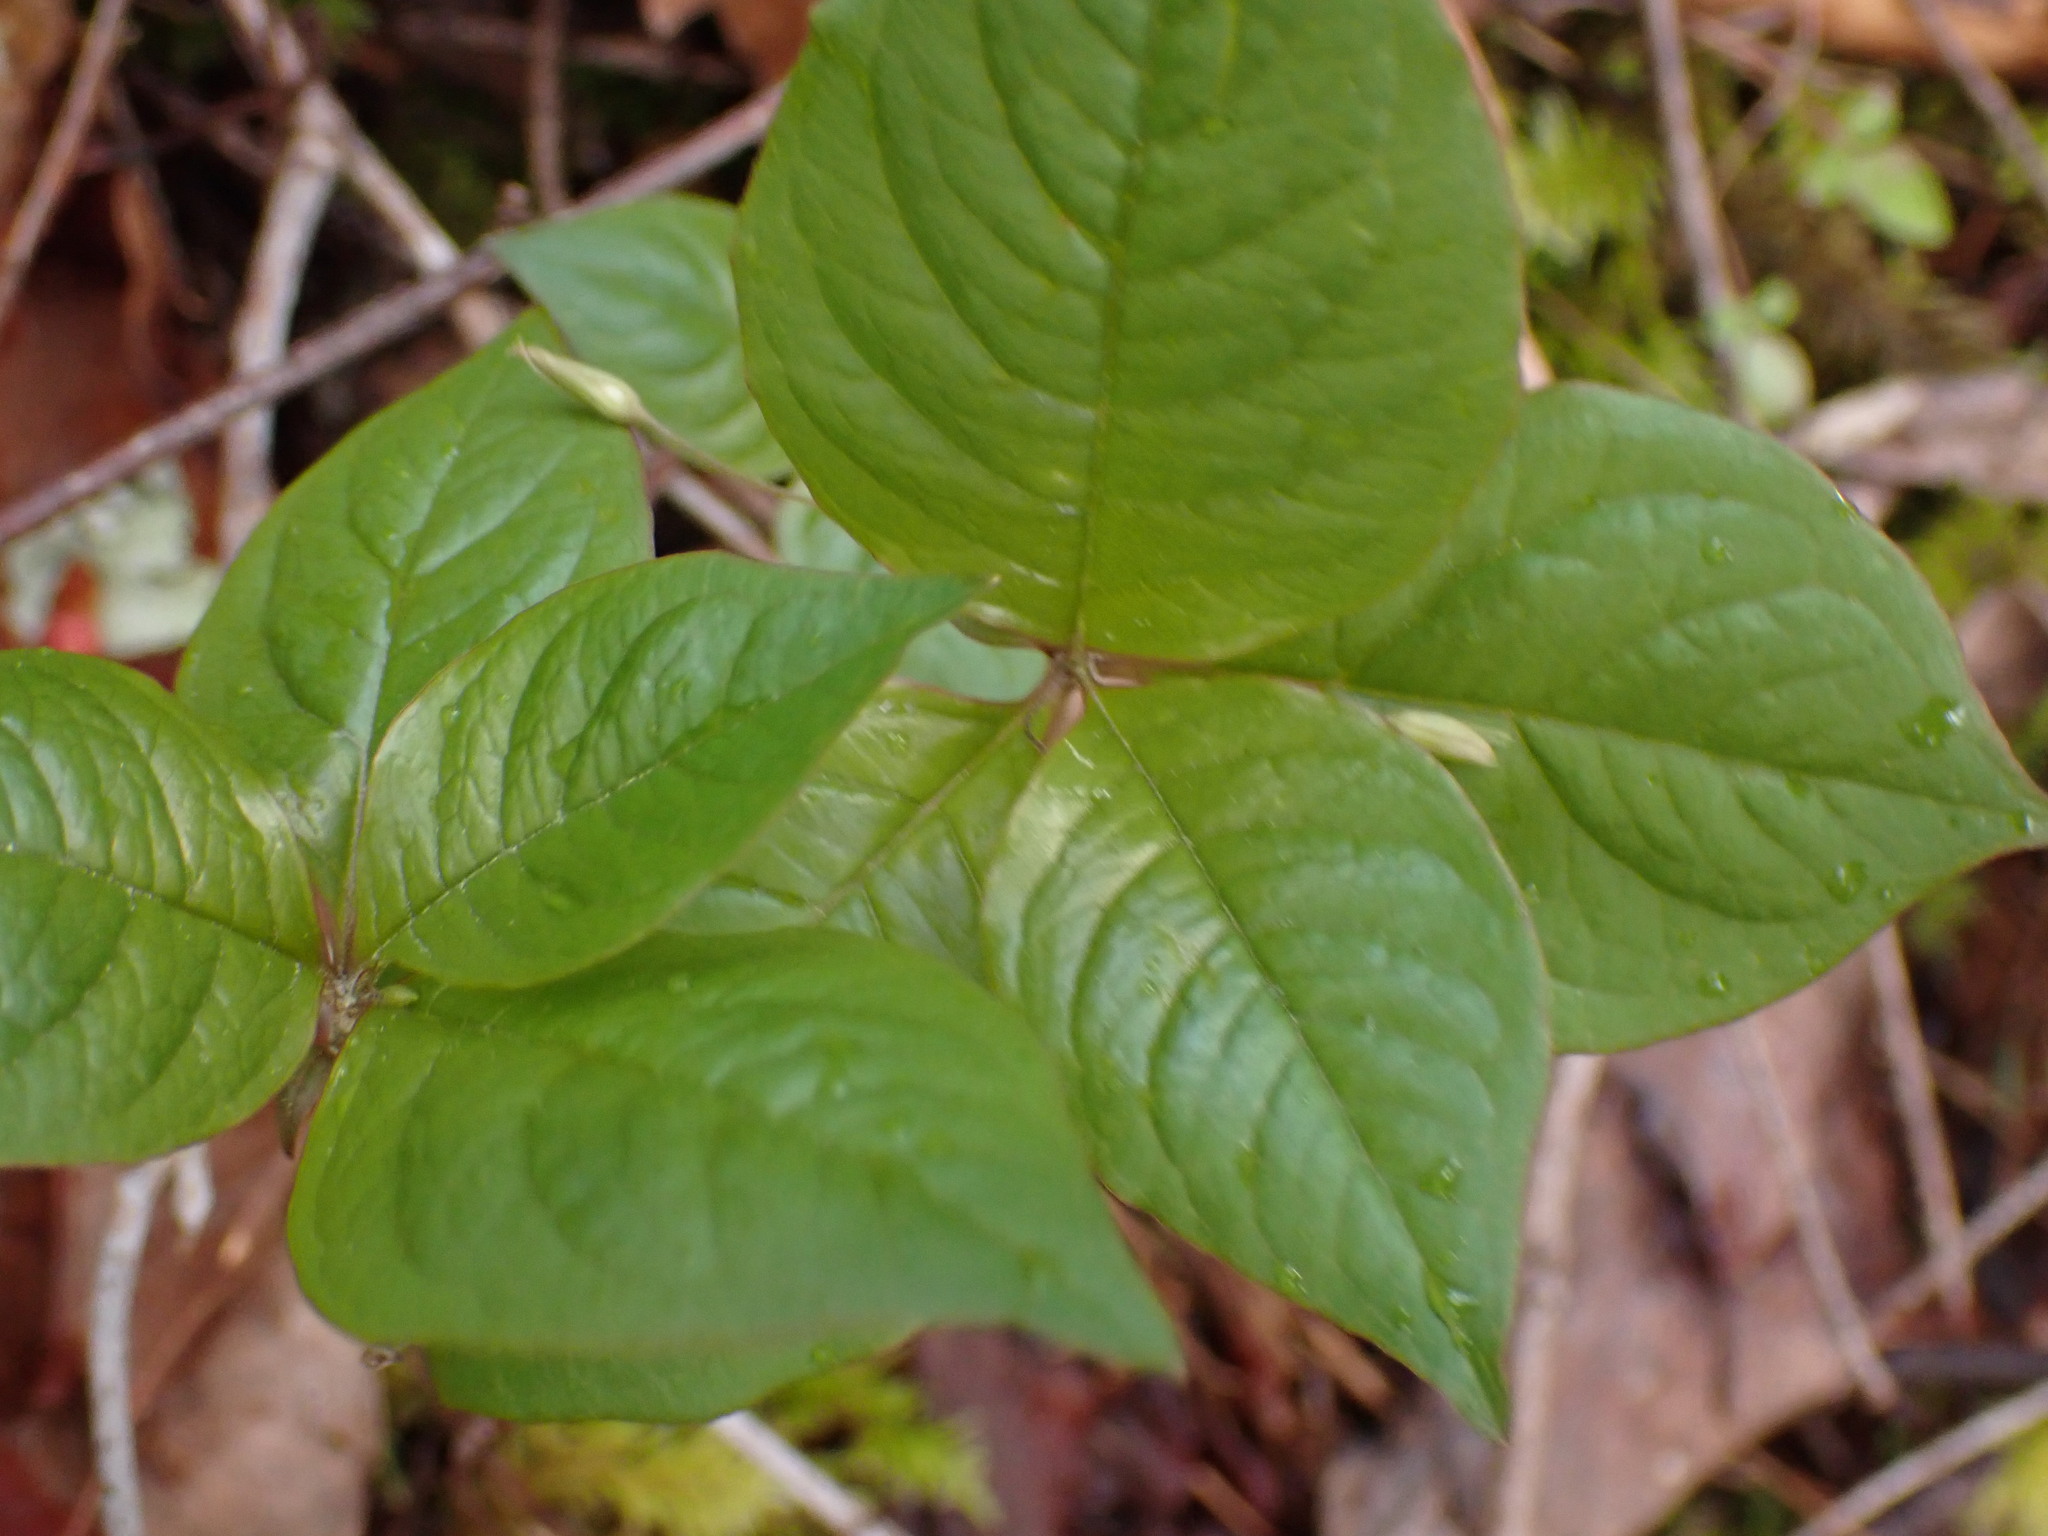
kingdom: Plantae
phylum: Tracheophyta
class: Magnoliopsida
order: Ericales
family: Primulaceae
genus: Lysimachia
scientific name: Lysimachia latifolia
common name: Pacific starflower
